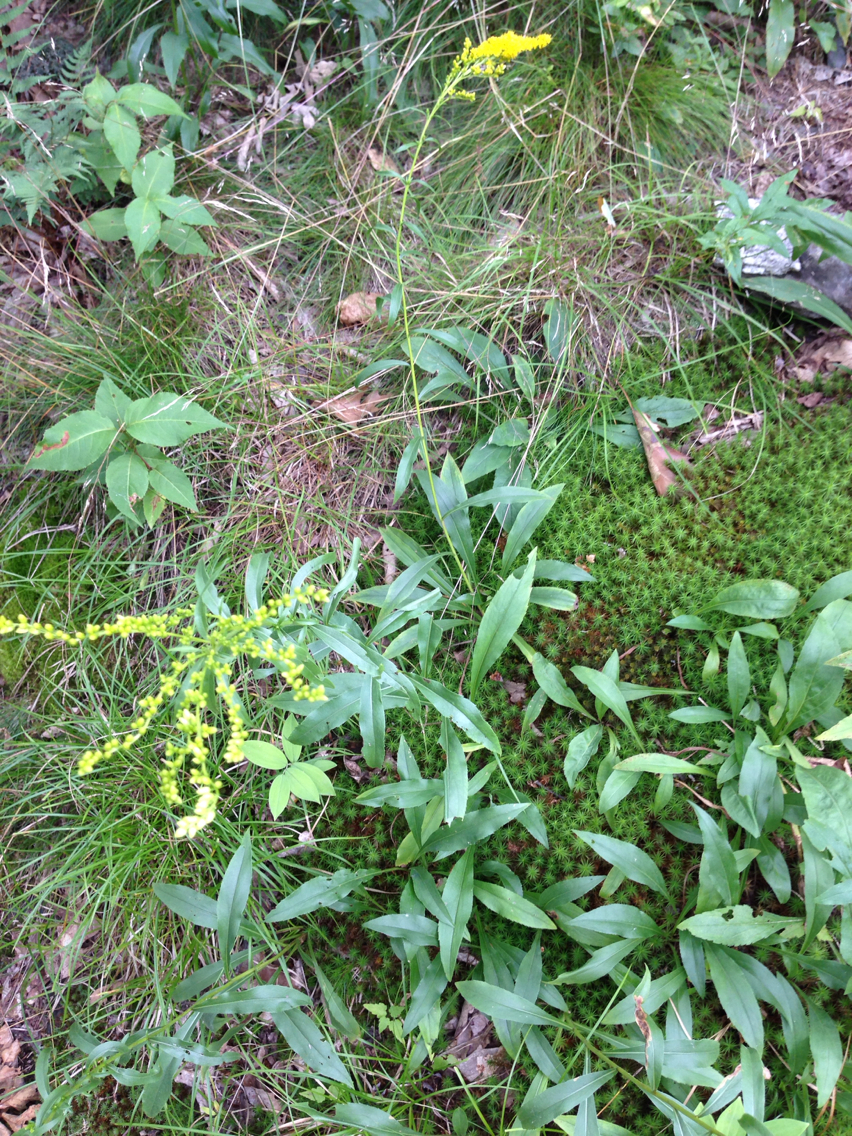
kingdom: Plantae
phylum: Tracheophyta
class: Magnoliopsida
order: Asterales
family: Asteraceae
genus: Solidago
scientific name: Solidago juncea
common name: Early goldenrod
